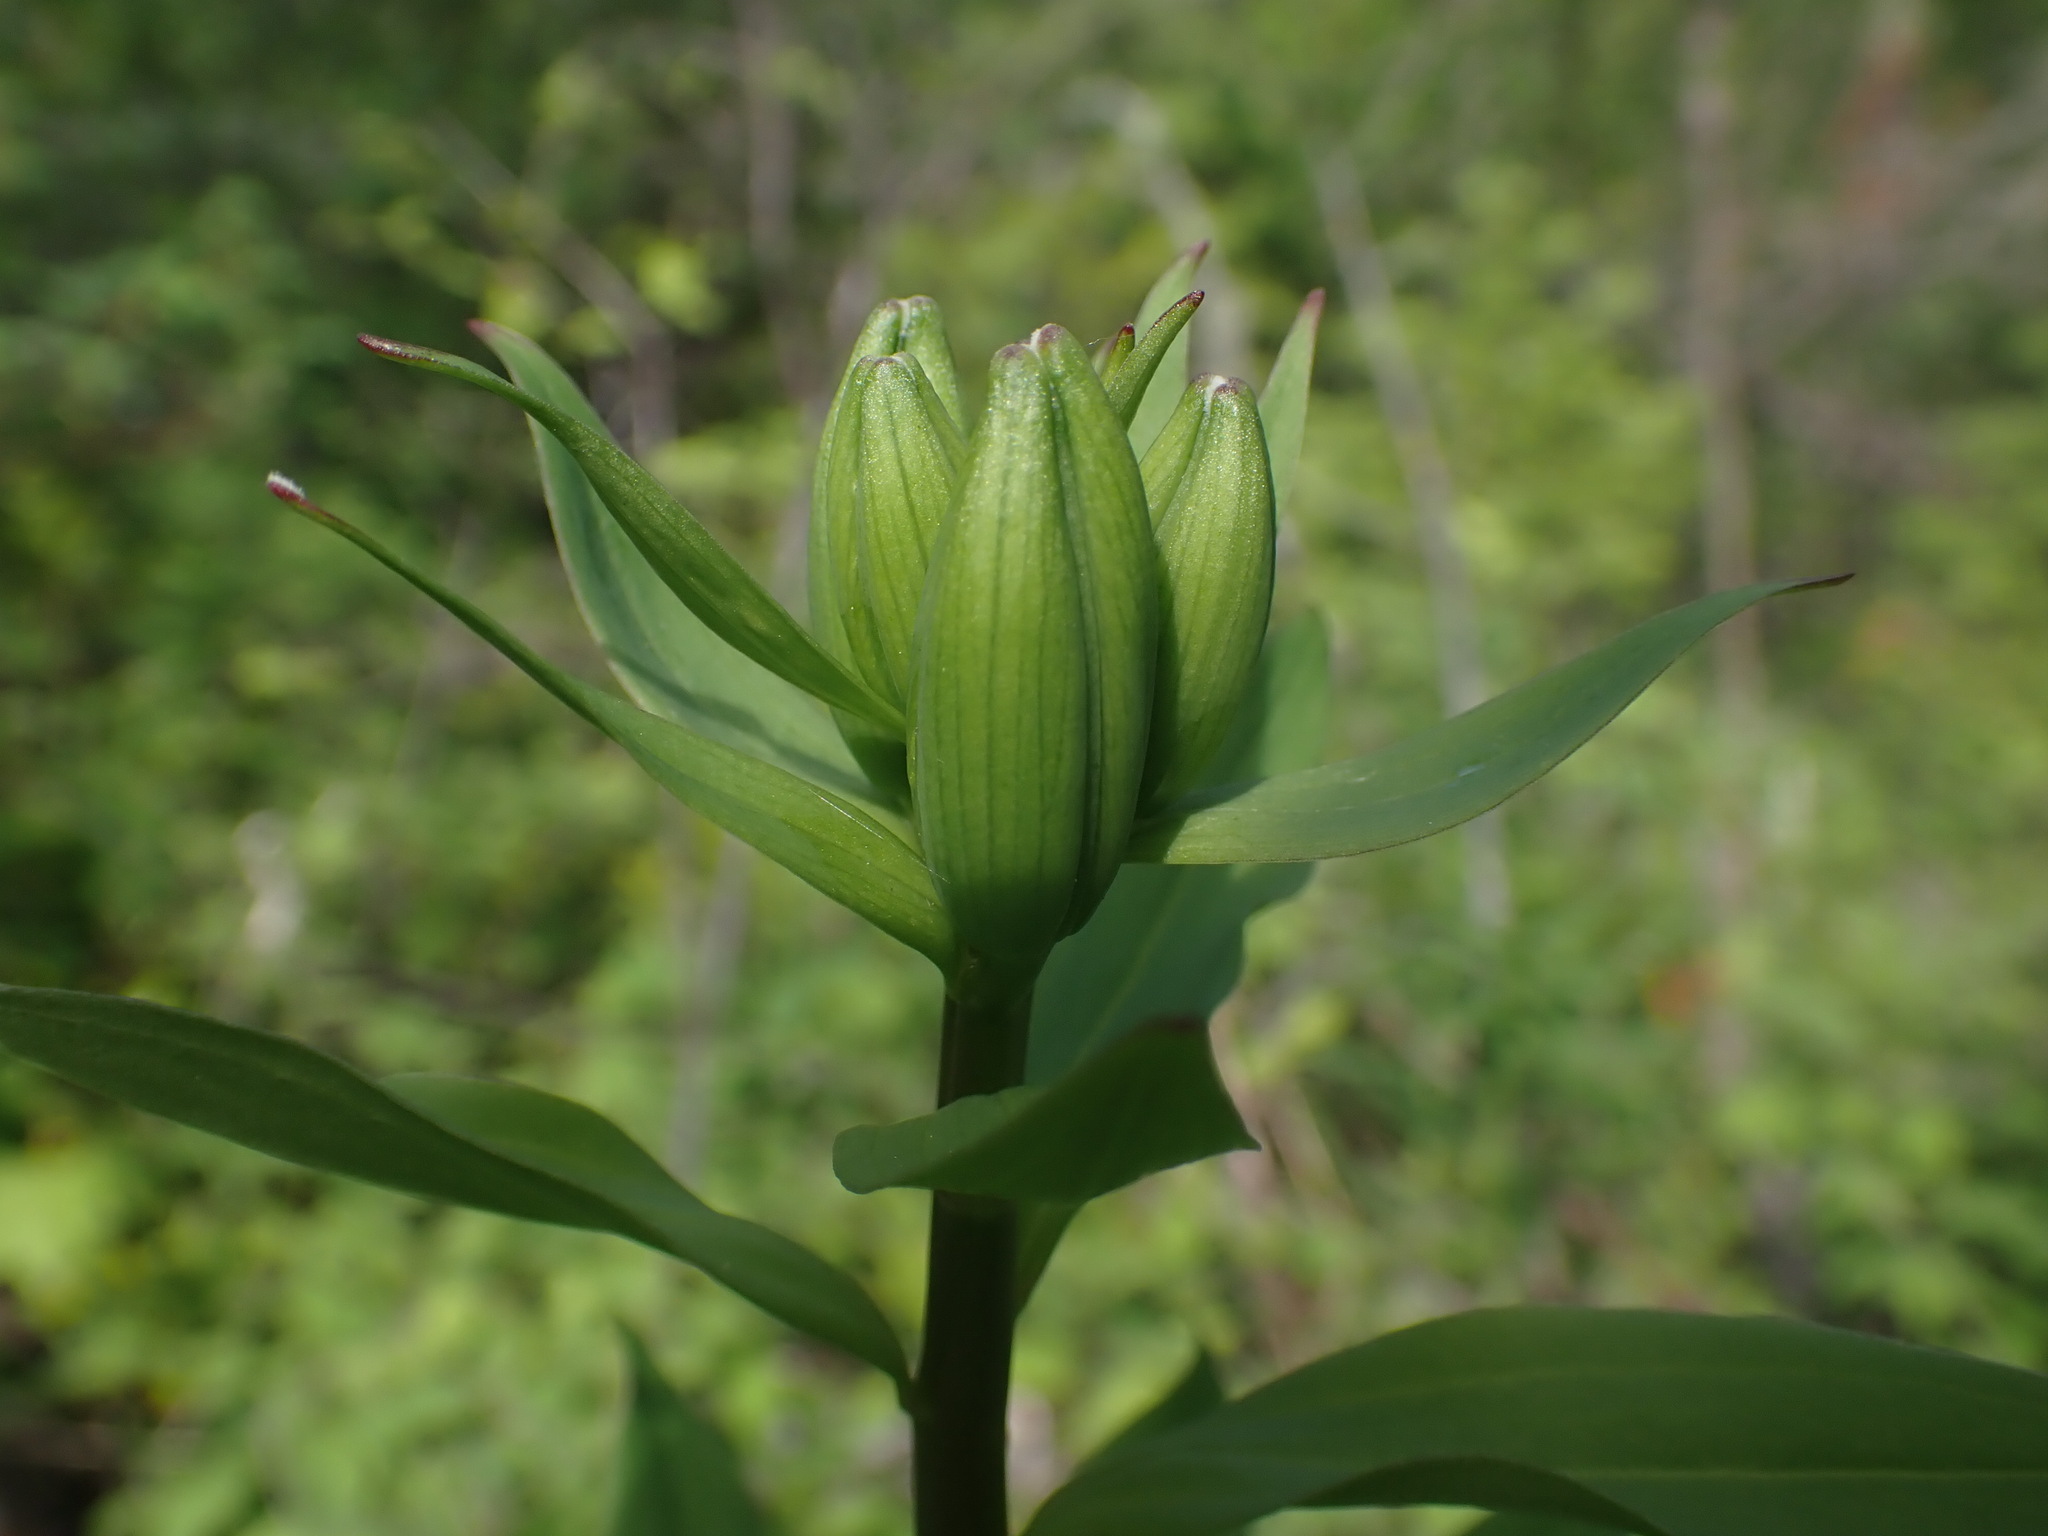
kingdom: Plantae
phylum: Tracheophyta
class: Liliopsida
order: Liliales
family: Liliaceae
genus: Lilium
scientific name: Lilium columbianum
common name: Columbia lily
